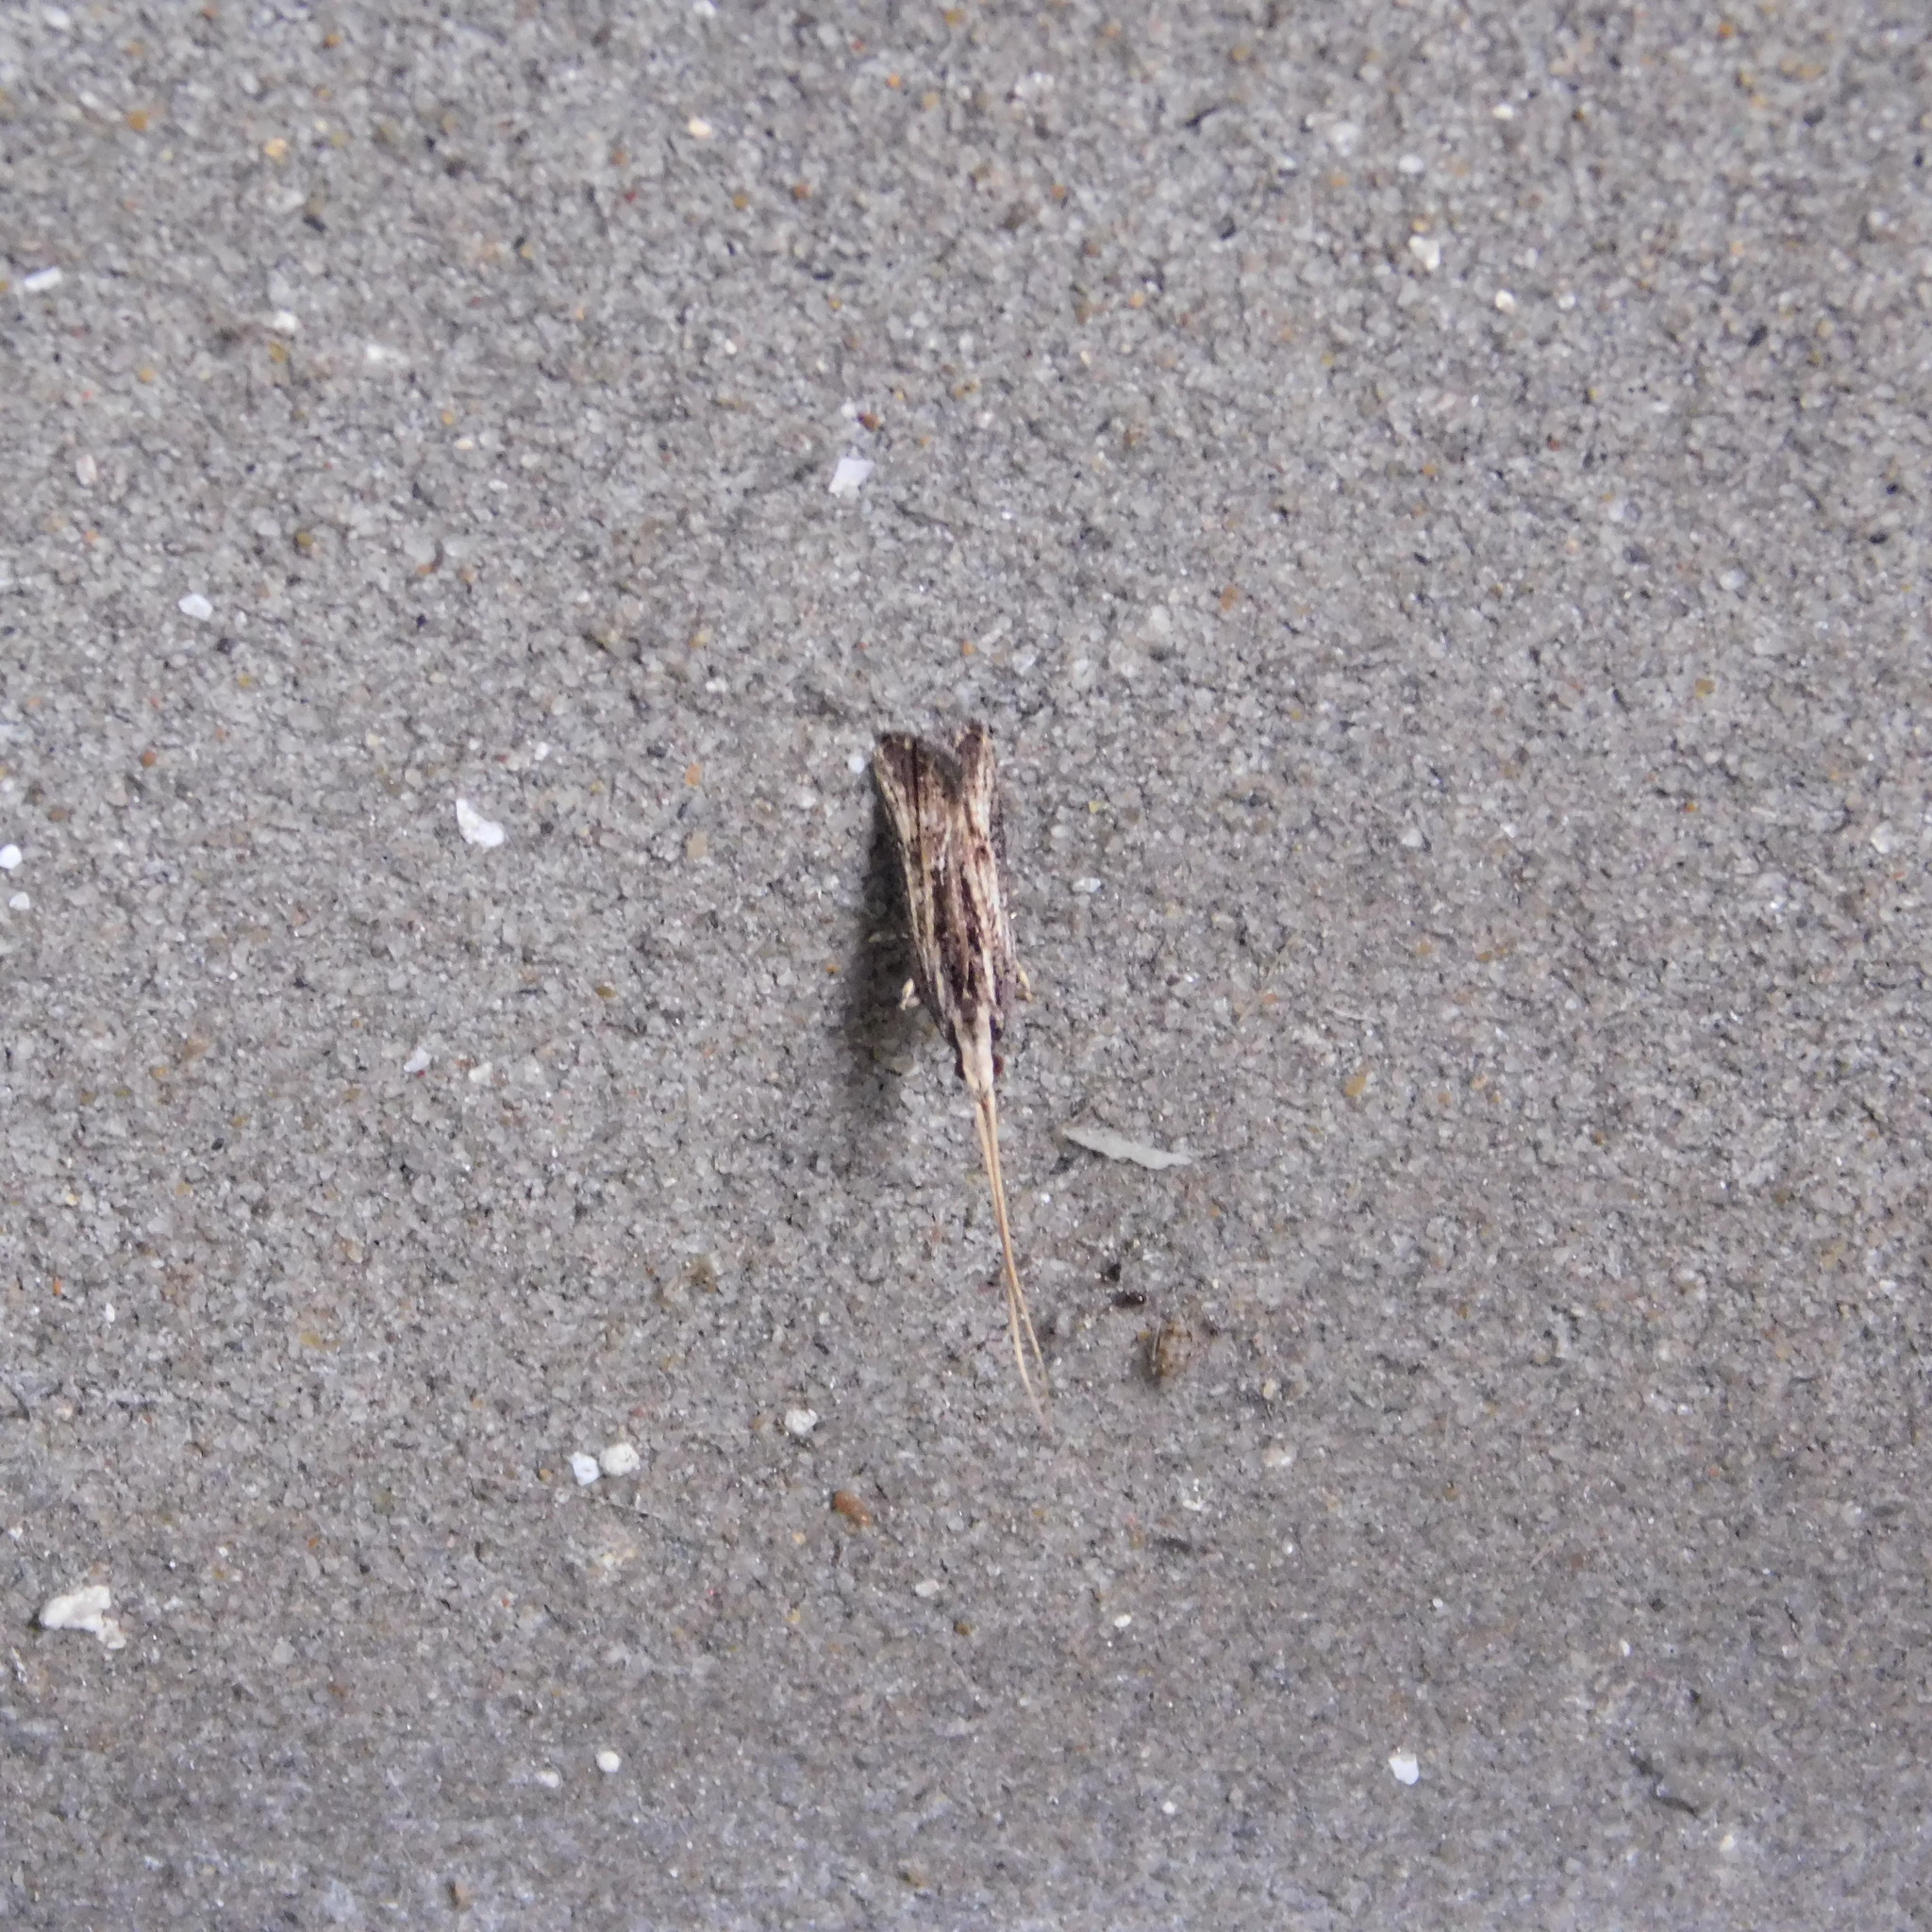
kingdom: Animalia
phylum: Arthropoda
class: Insecta
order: Lepidoptera
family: Lecithoceridae
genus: Sarisophora
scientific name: Sarisophora leucoscia
